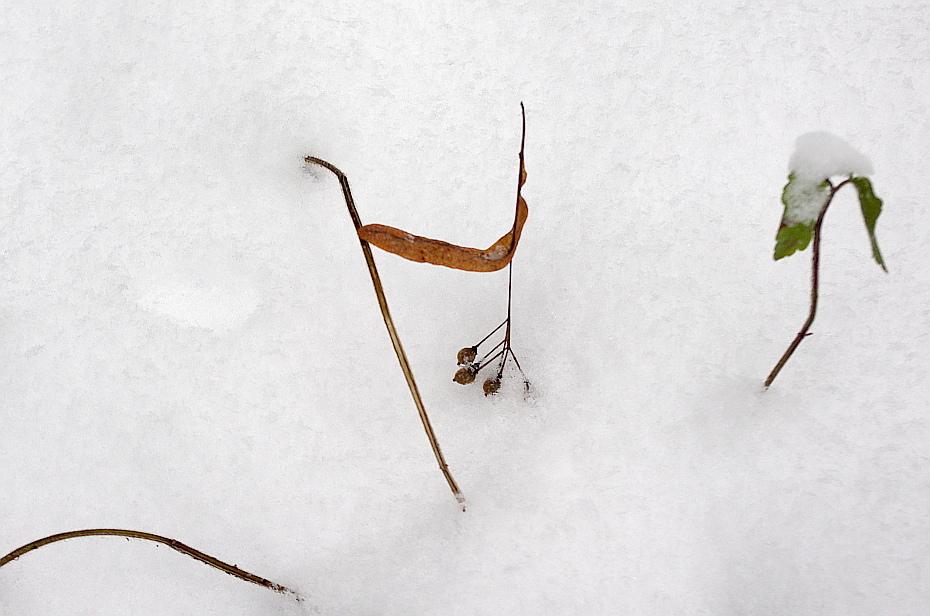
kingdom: Plantae
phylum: Tracheophyta
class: Magnoliopsida
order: Malvales
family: Malvaceae
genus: Tilia
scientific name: Tilia cordata
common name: Small-leaved lime
